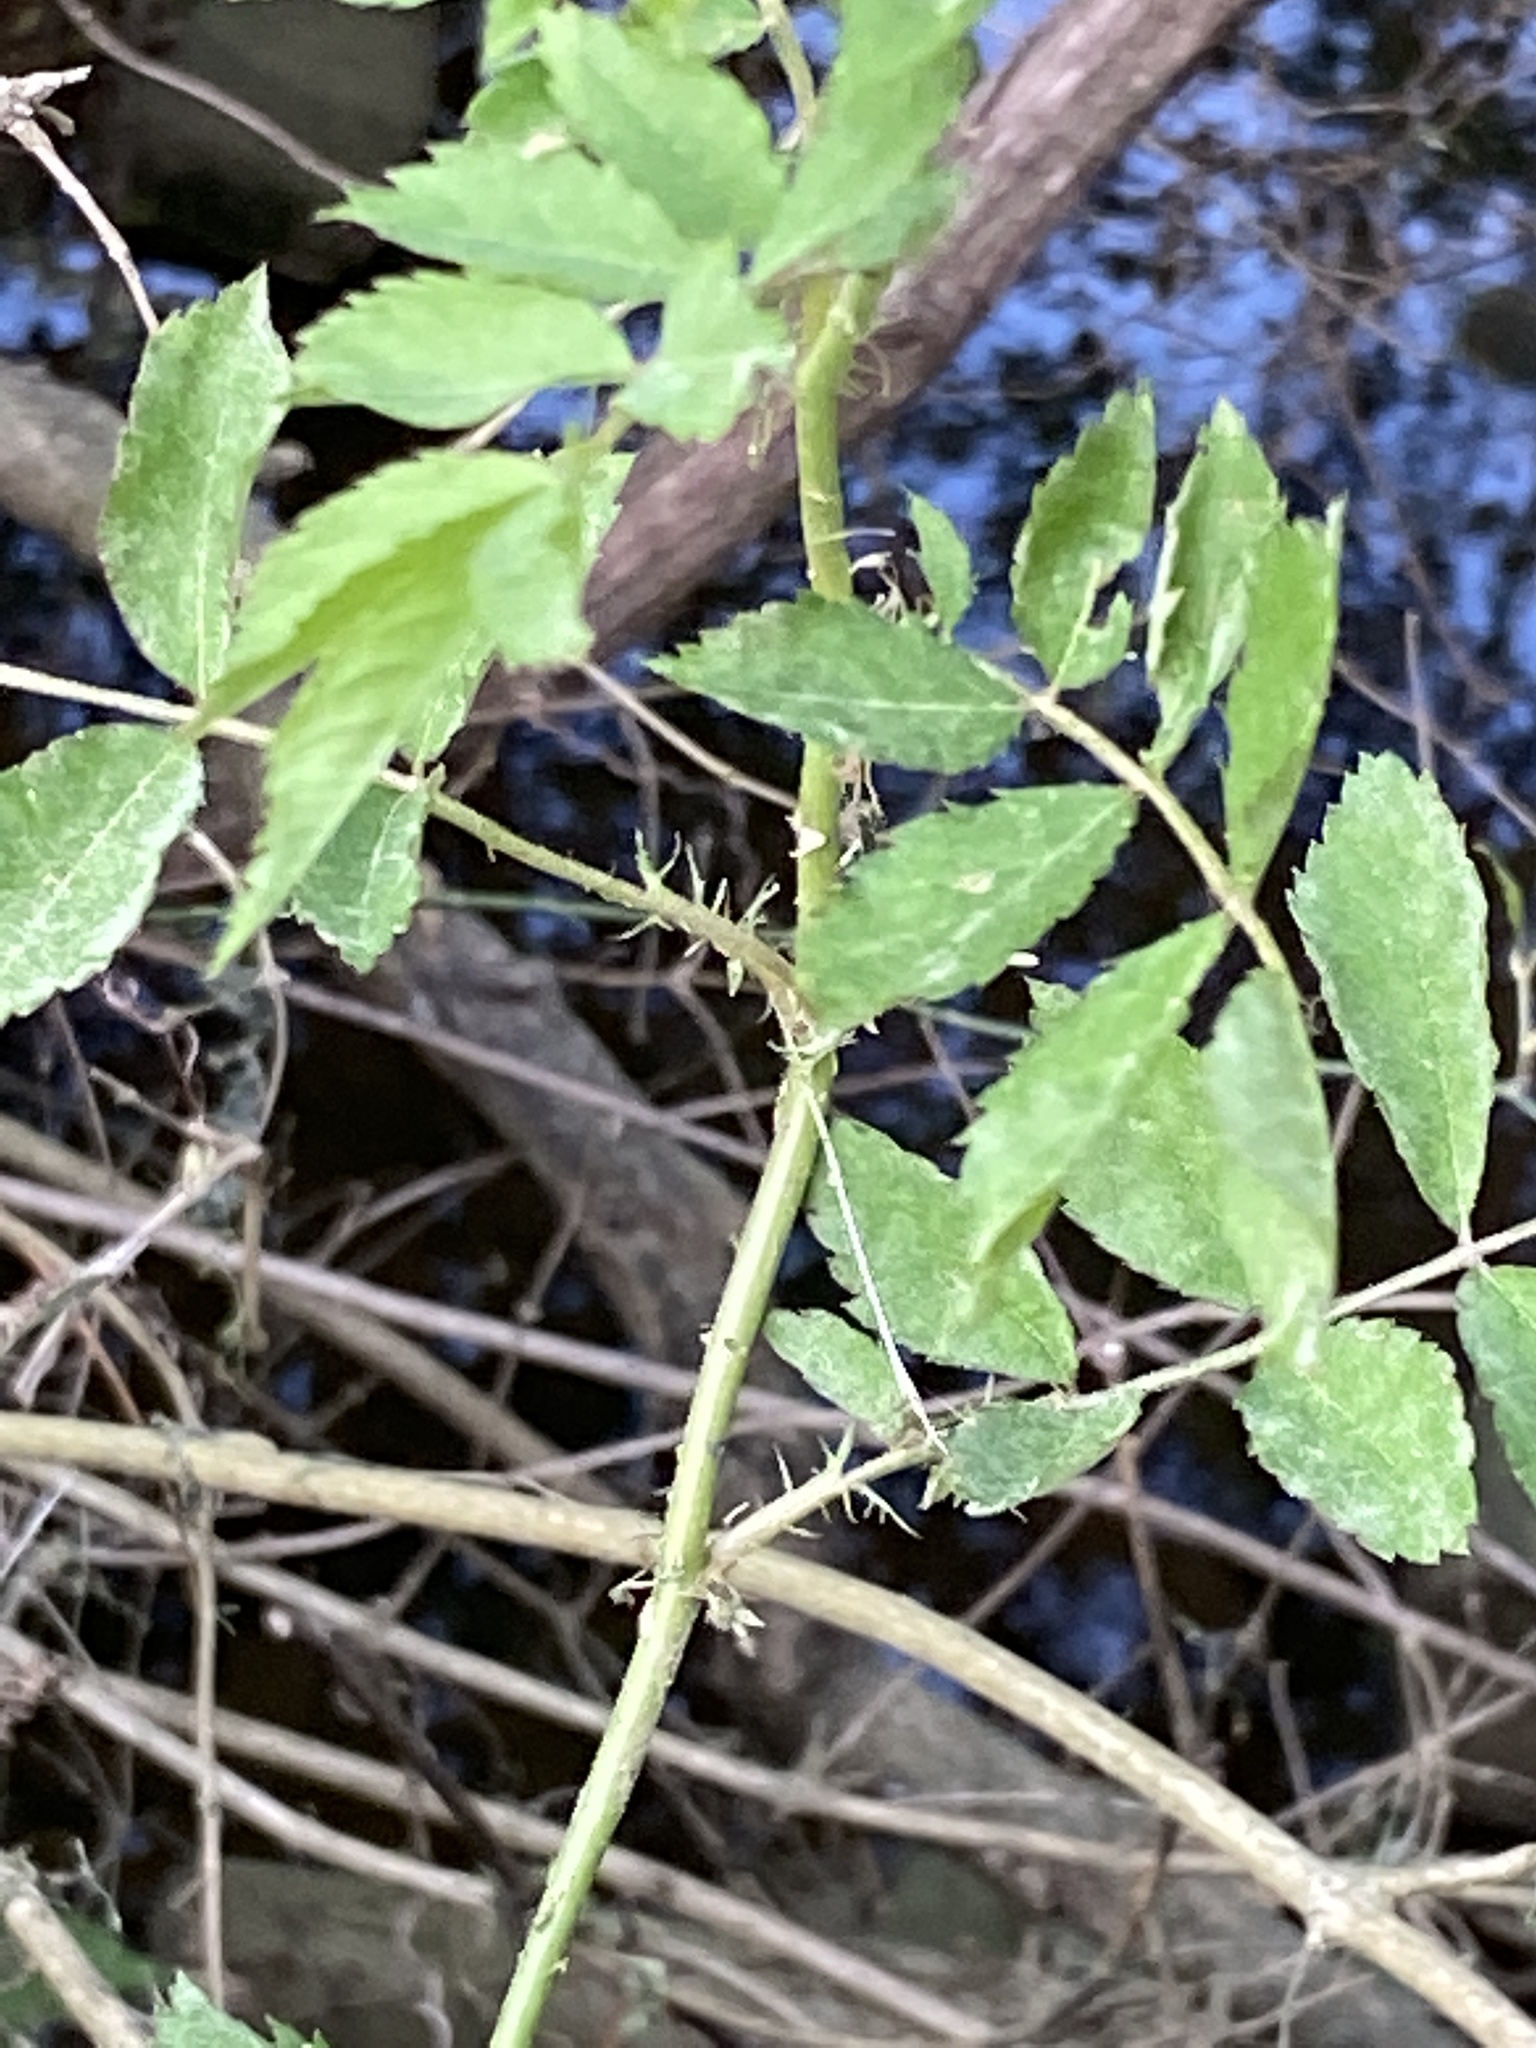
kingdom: Plantae
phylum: Tracheophyta
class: Magnoliopsida
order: Rosales
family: Rosaceae
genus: Rosa
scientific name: Rosa multiflora
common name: Multiflora rose
